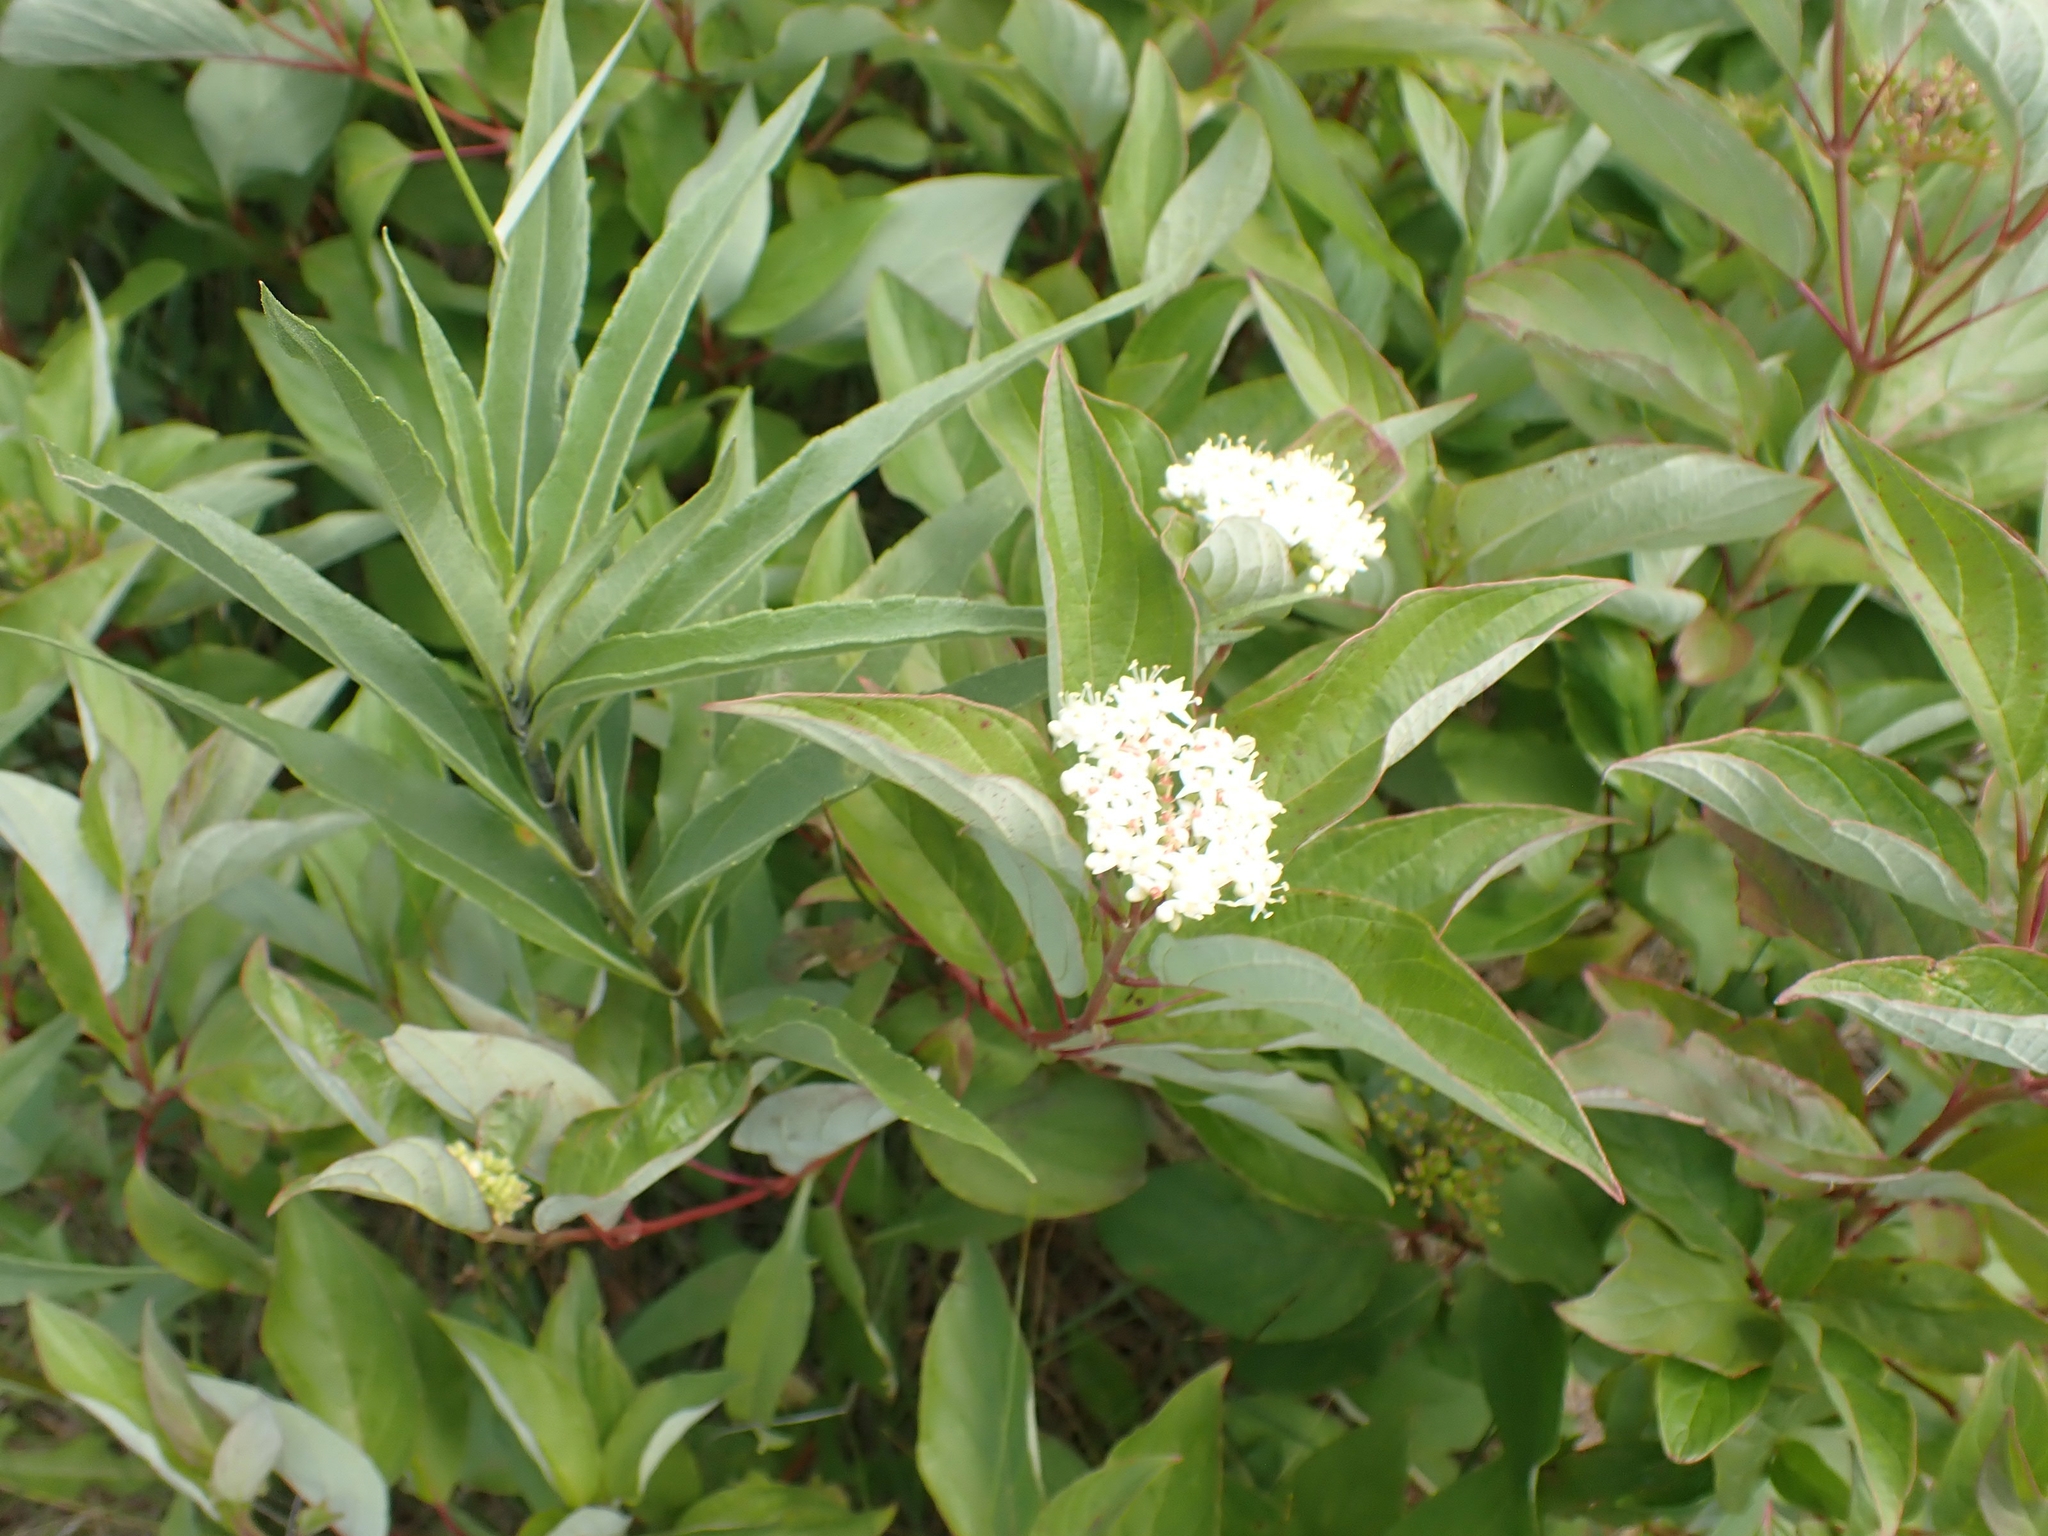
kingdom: Plantae
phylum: Tracheophyta
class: Magnoliopsida
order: Cornales
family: Cornaceae
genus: Cornus
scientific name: Cornus sericea
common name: Red-osier dogwood
